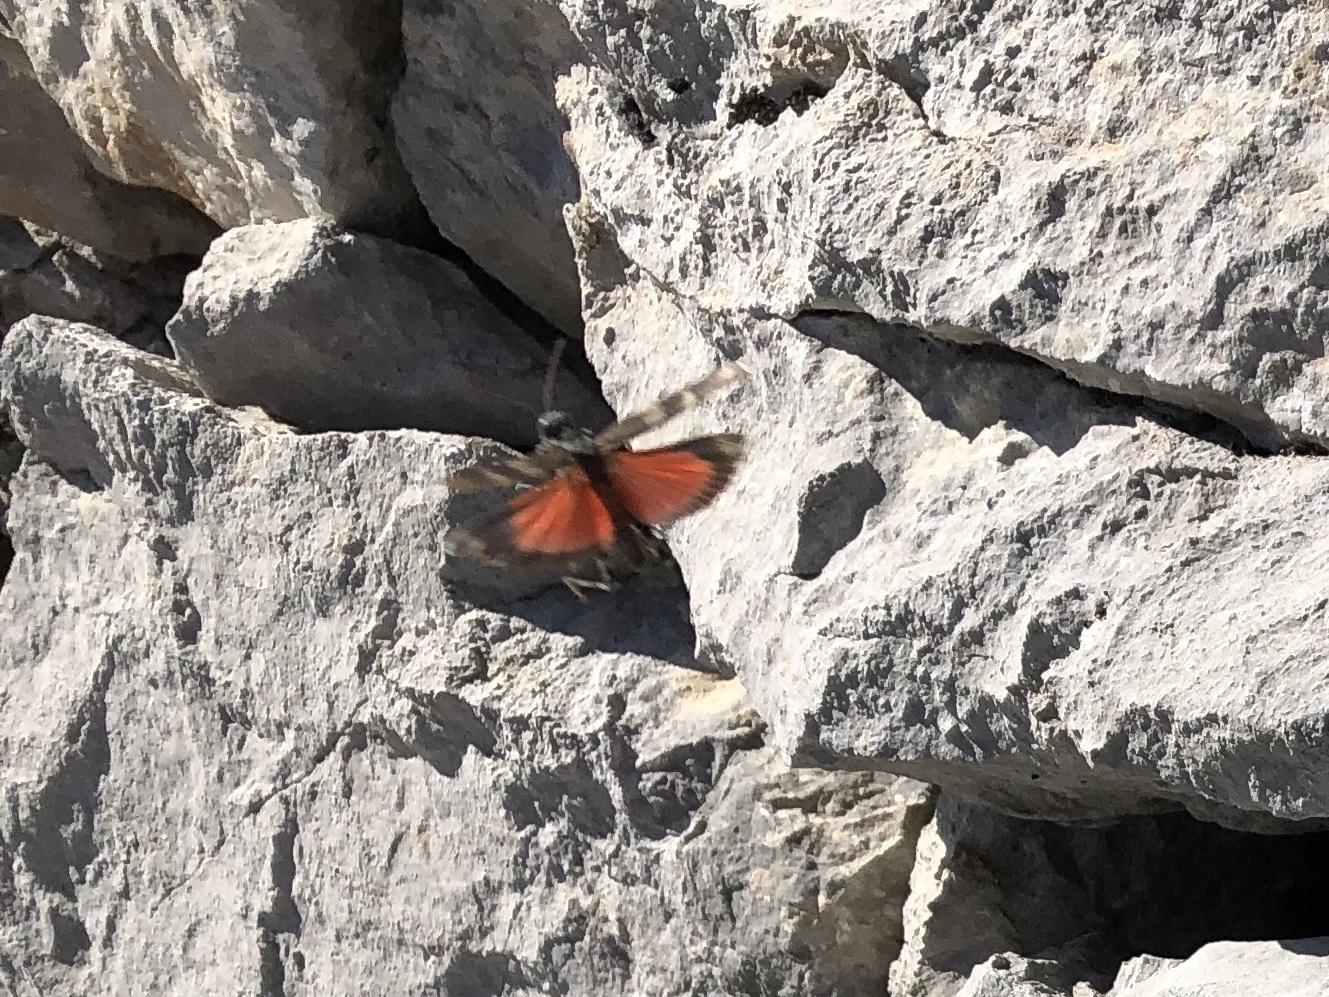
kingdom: Animalia
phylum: Arthropoda
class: Insecta
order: Orthoptera
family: Acrididae
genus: Oedipoda
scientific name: Oedipoda germanica
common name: Red band-winged grasshopper
